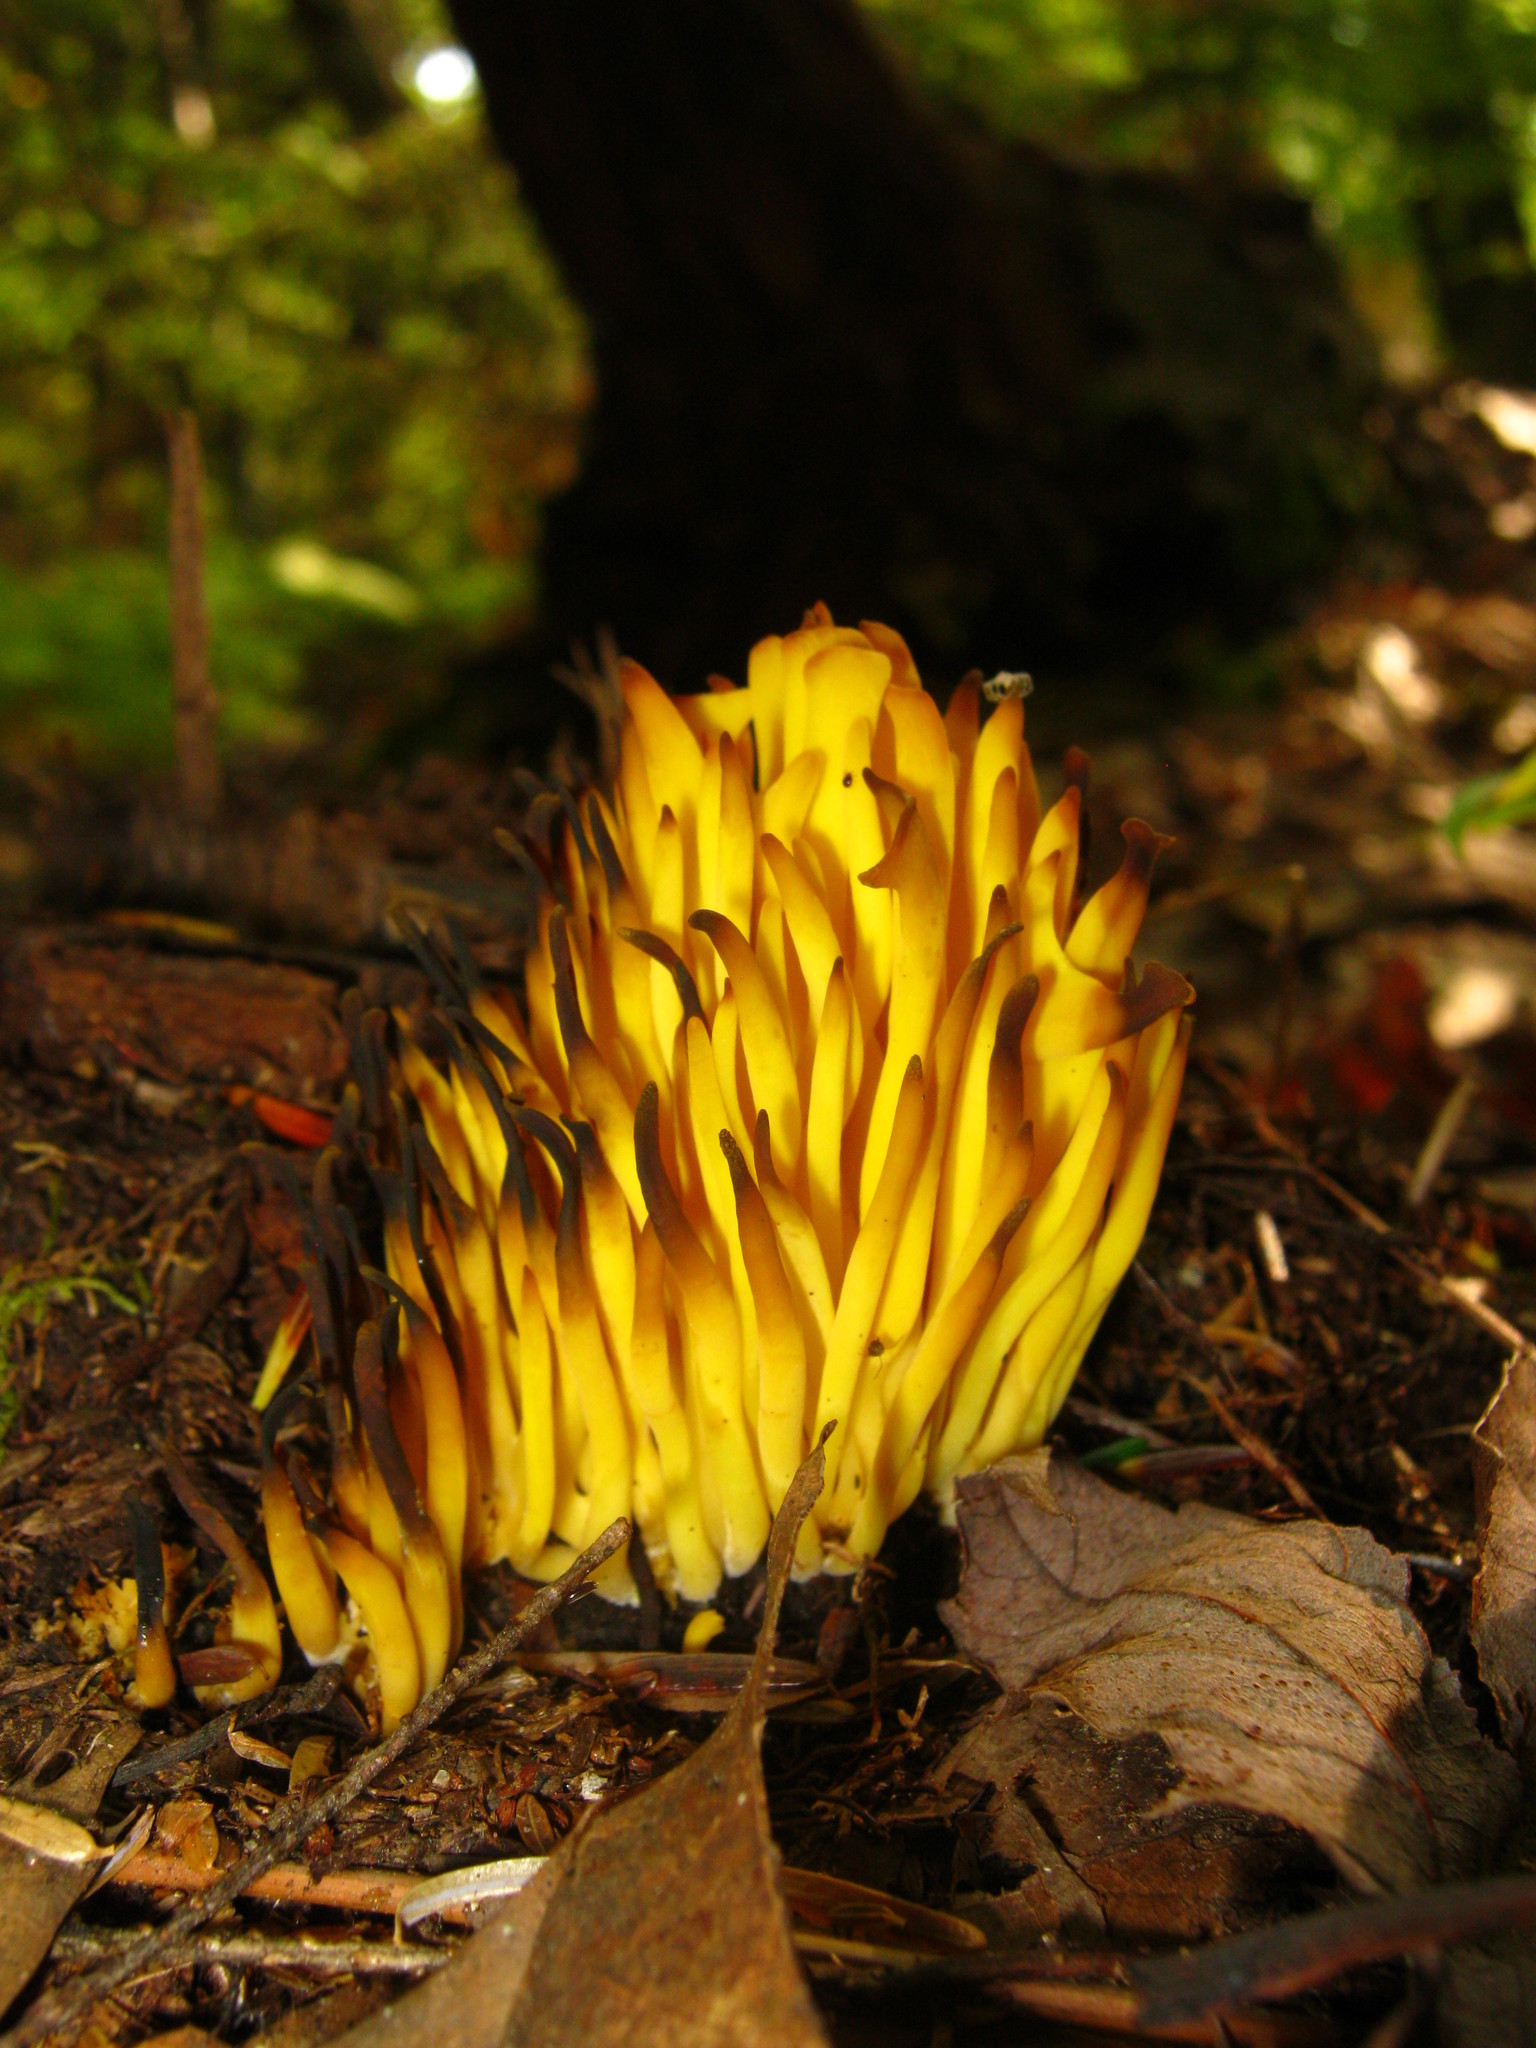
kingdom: Fungi
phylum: Basidiomycota
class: Agaricomycetes
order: Agaricales
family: Clavariaceae
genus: Clavulinopsis
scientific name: Clavulinopsis fusiformis
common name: Golden spindles
